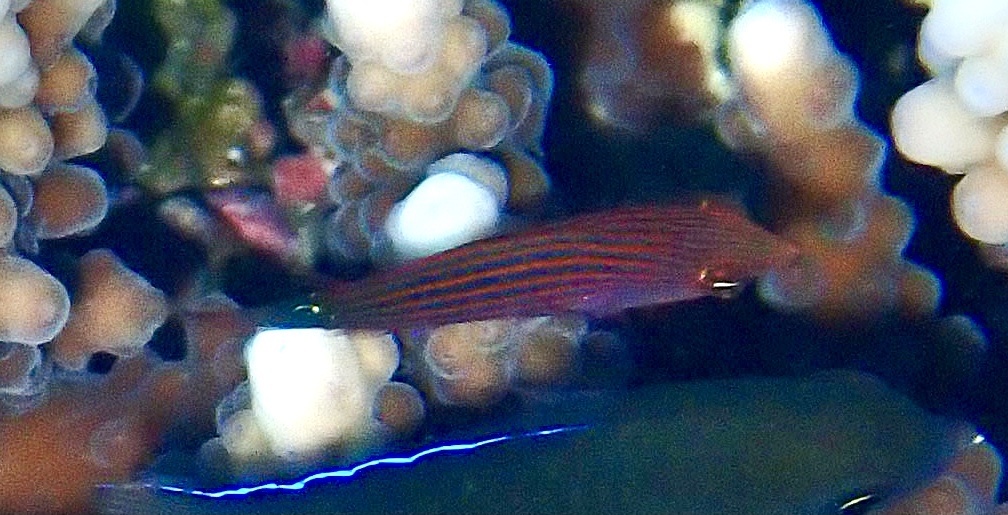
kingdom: Animalia
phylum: Chordata
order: Perciformes
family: Labridae
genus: Pseudocheilinus
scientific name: Pseudocheilinus hexataenia
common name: Sixline wrasse
